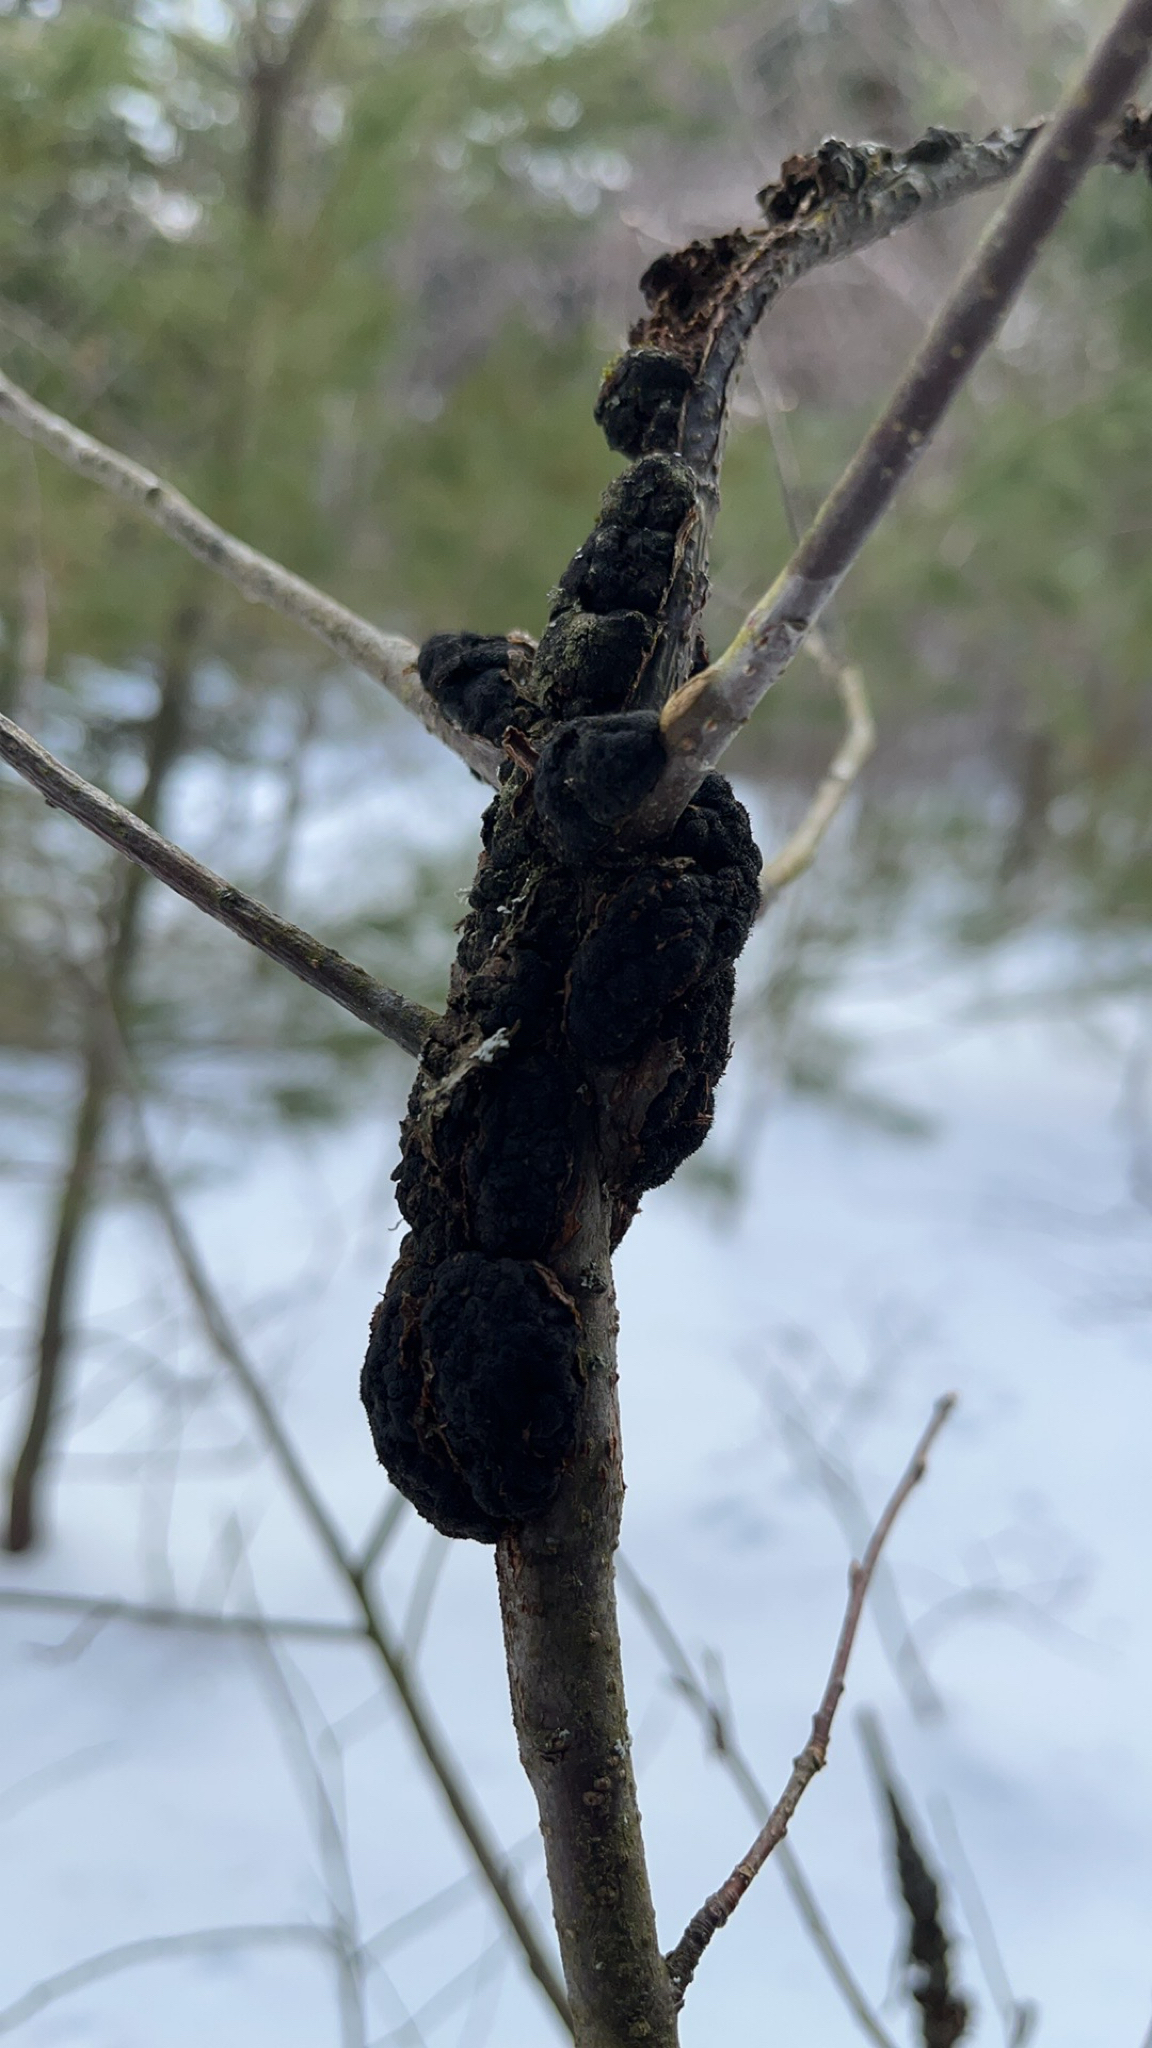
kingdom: Fungi
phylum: Ascomycota
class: Dothideomycetes
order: Venturiales
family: Venturiaceae
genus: Apiosporina
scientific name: Apiosporina morbosa
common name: Black knot
